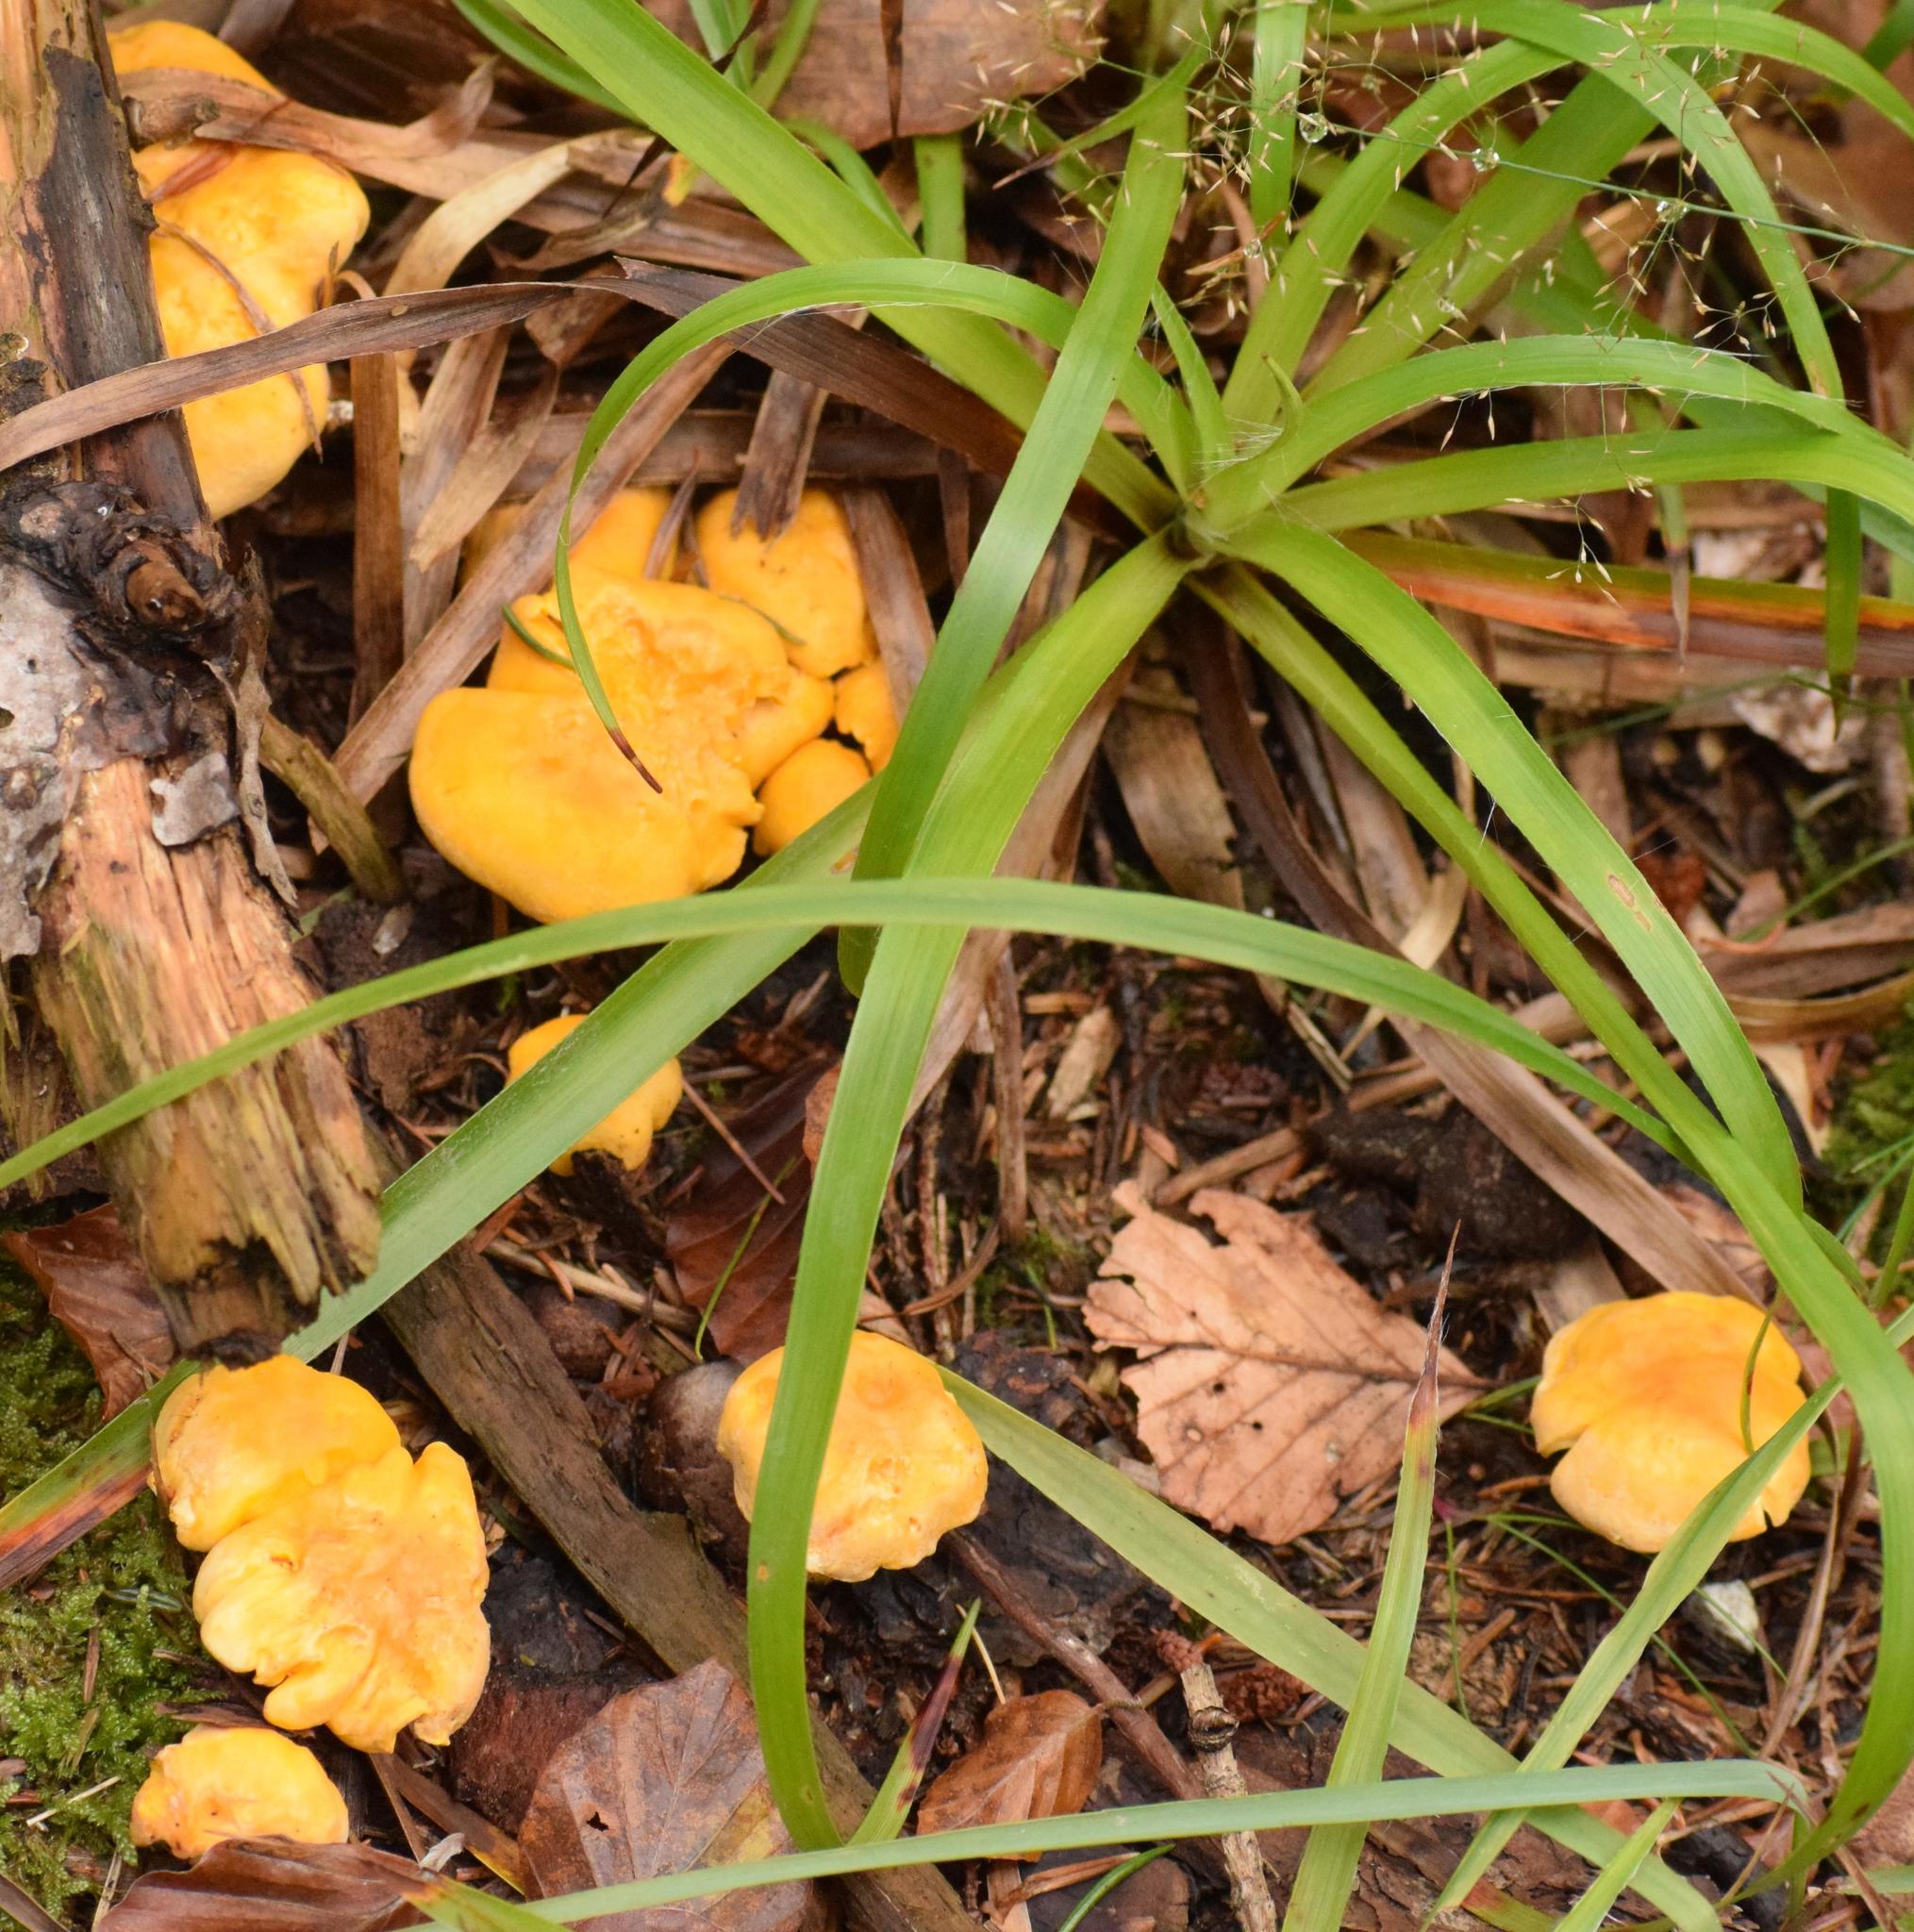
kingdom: Fungi
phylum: Basidiomycota
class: Agaricomycetes
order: Cantharellales
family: Hydnaceae
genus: Cantharellus
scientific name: Cantharellus cibarius
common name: Chanterelle
